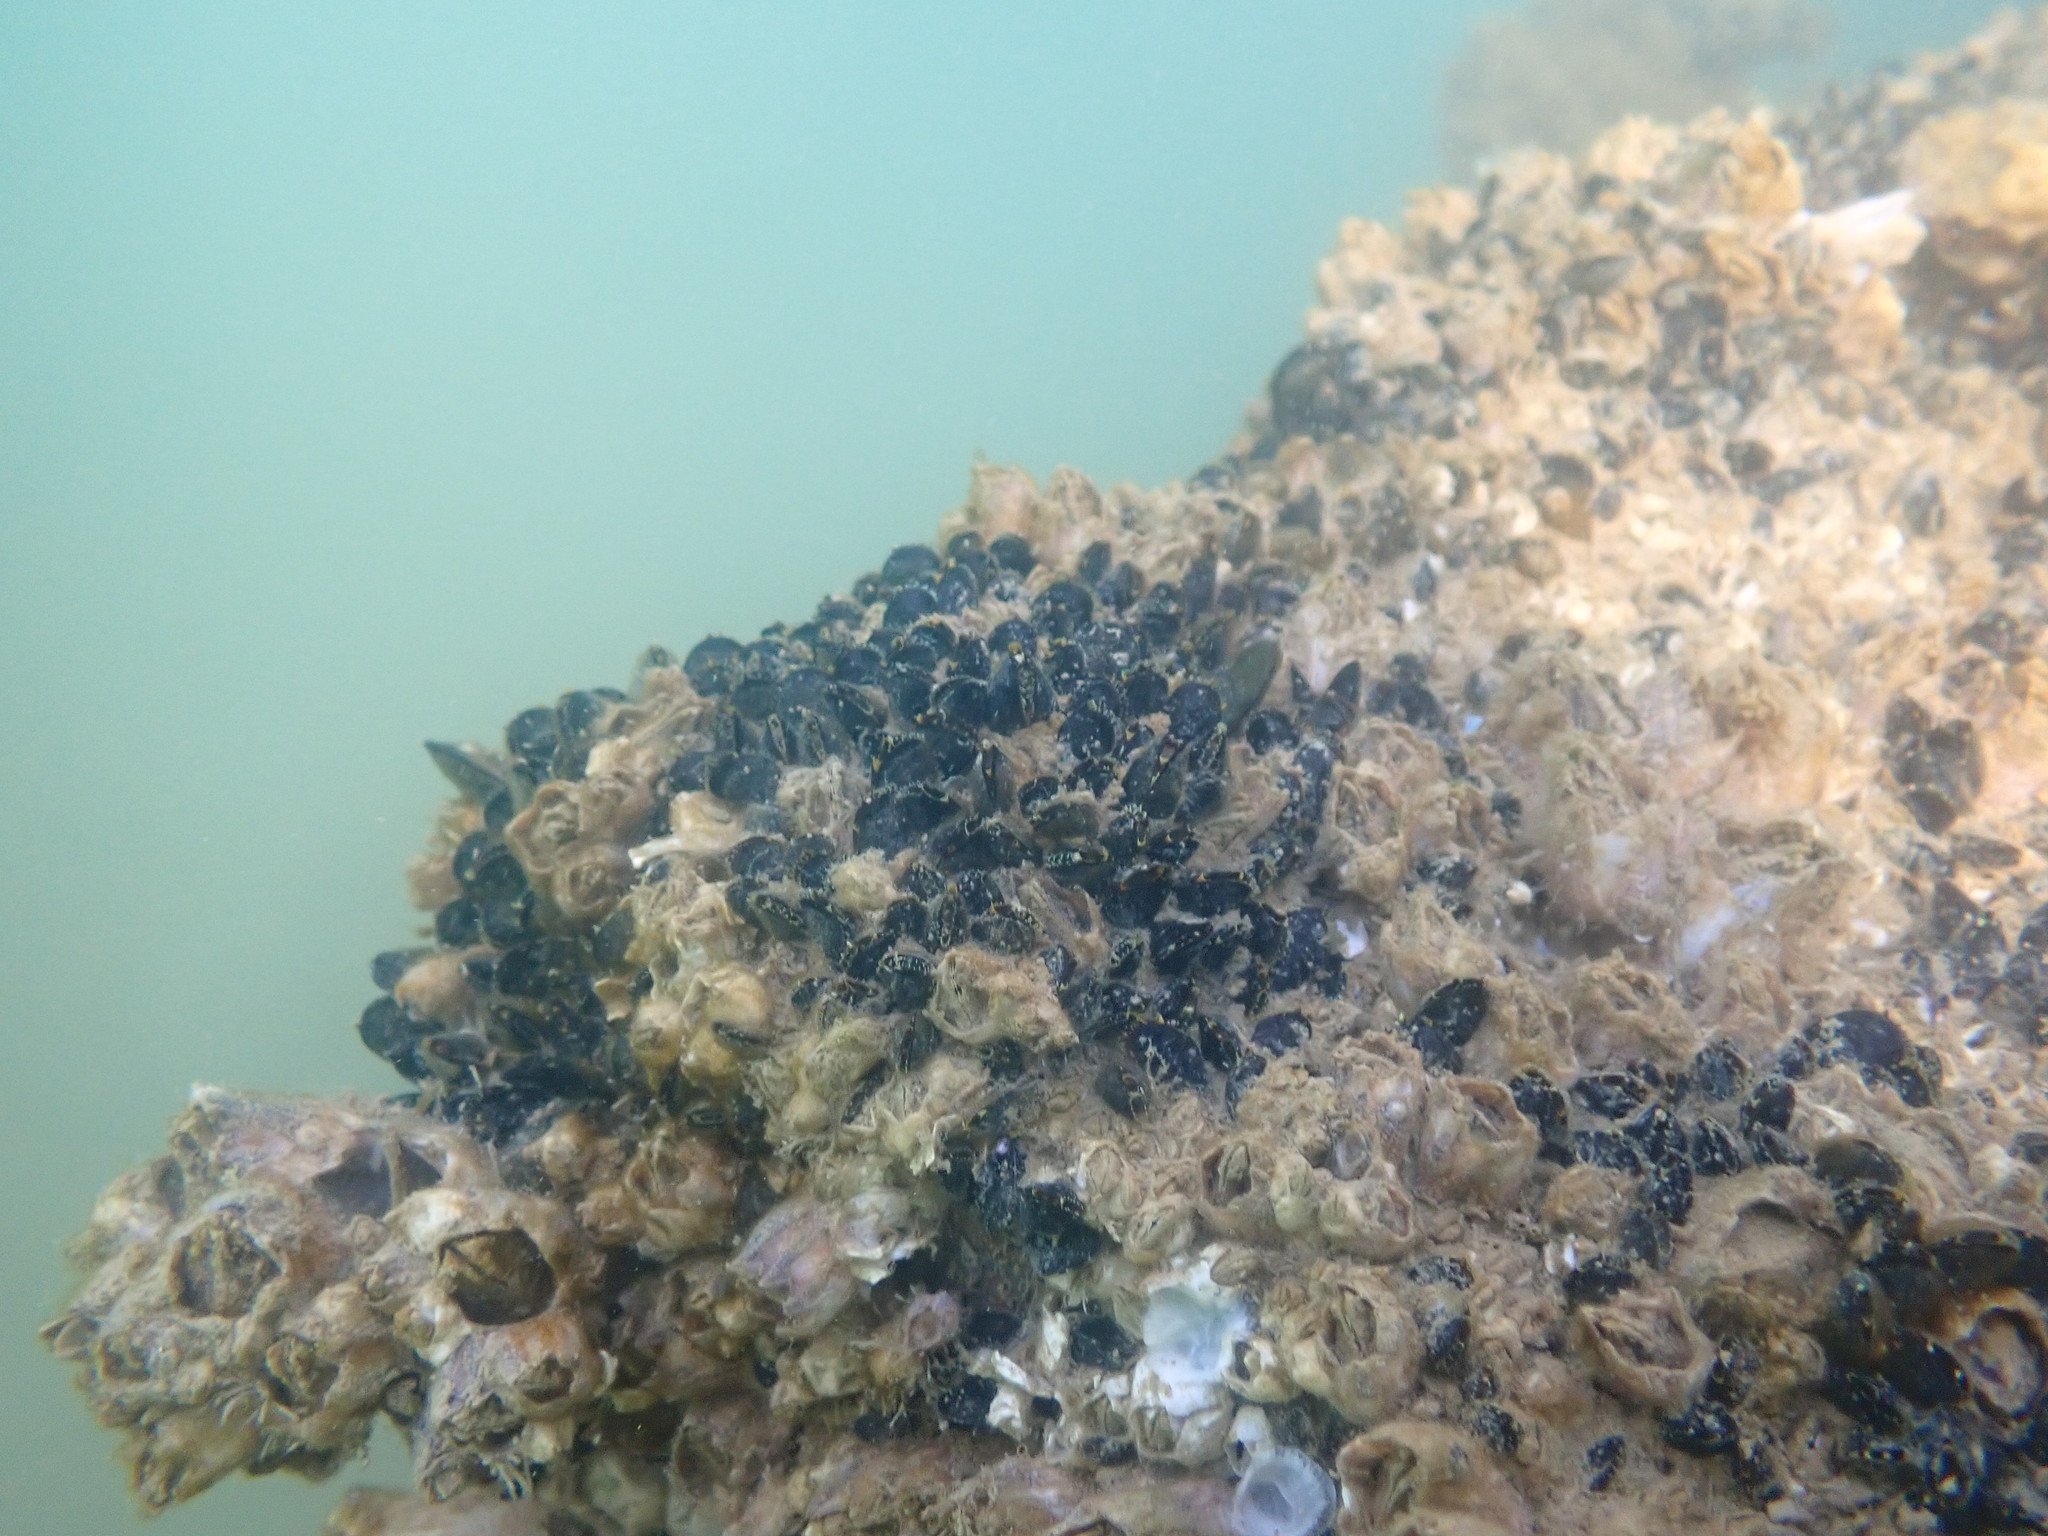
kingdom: Animalia
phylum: Mollusca
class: Bivalvia
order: Mytilida
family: Mytilidae
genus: Xenostrobus
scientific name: Xenostrobus neozelanicus
